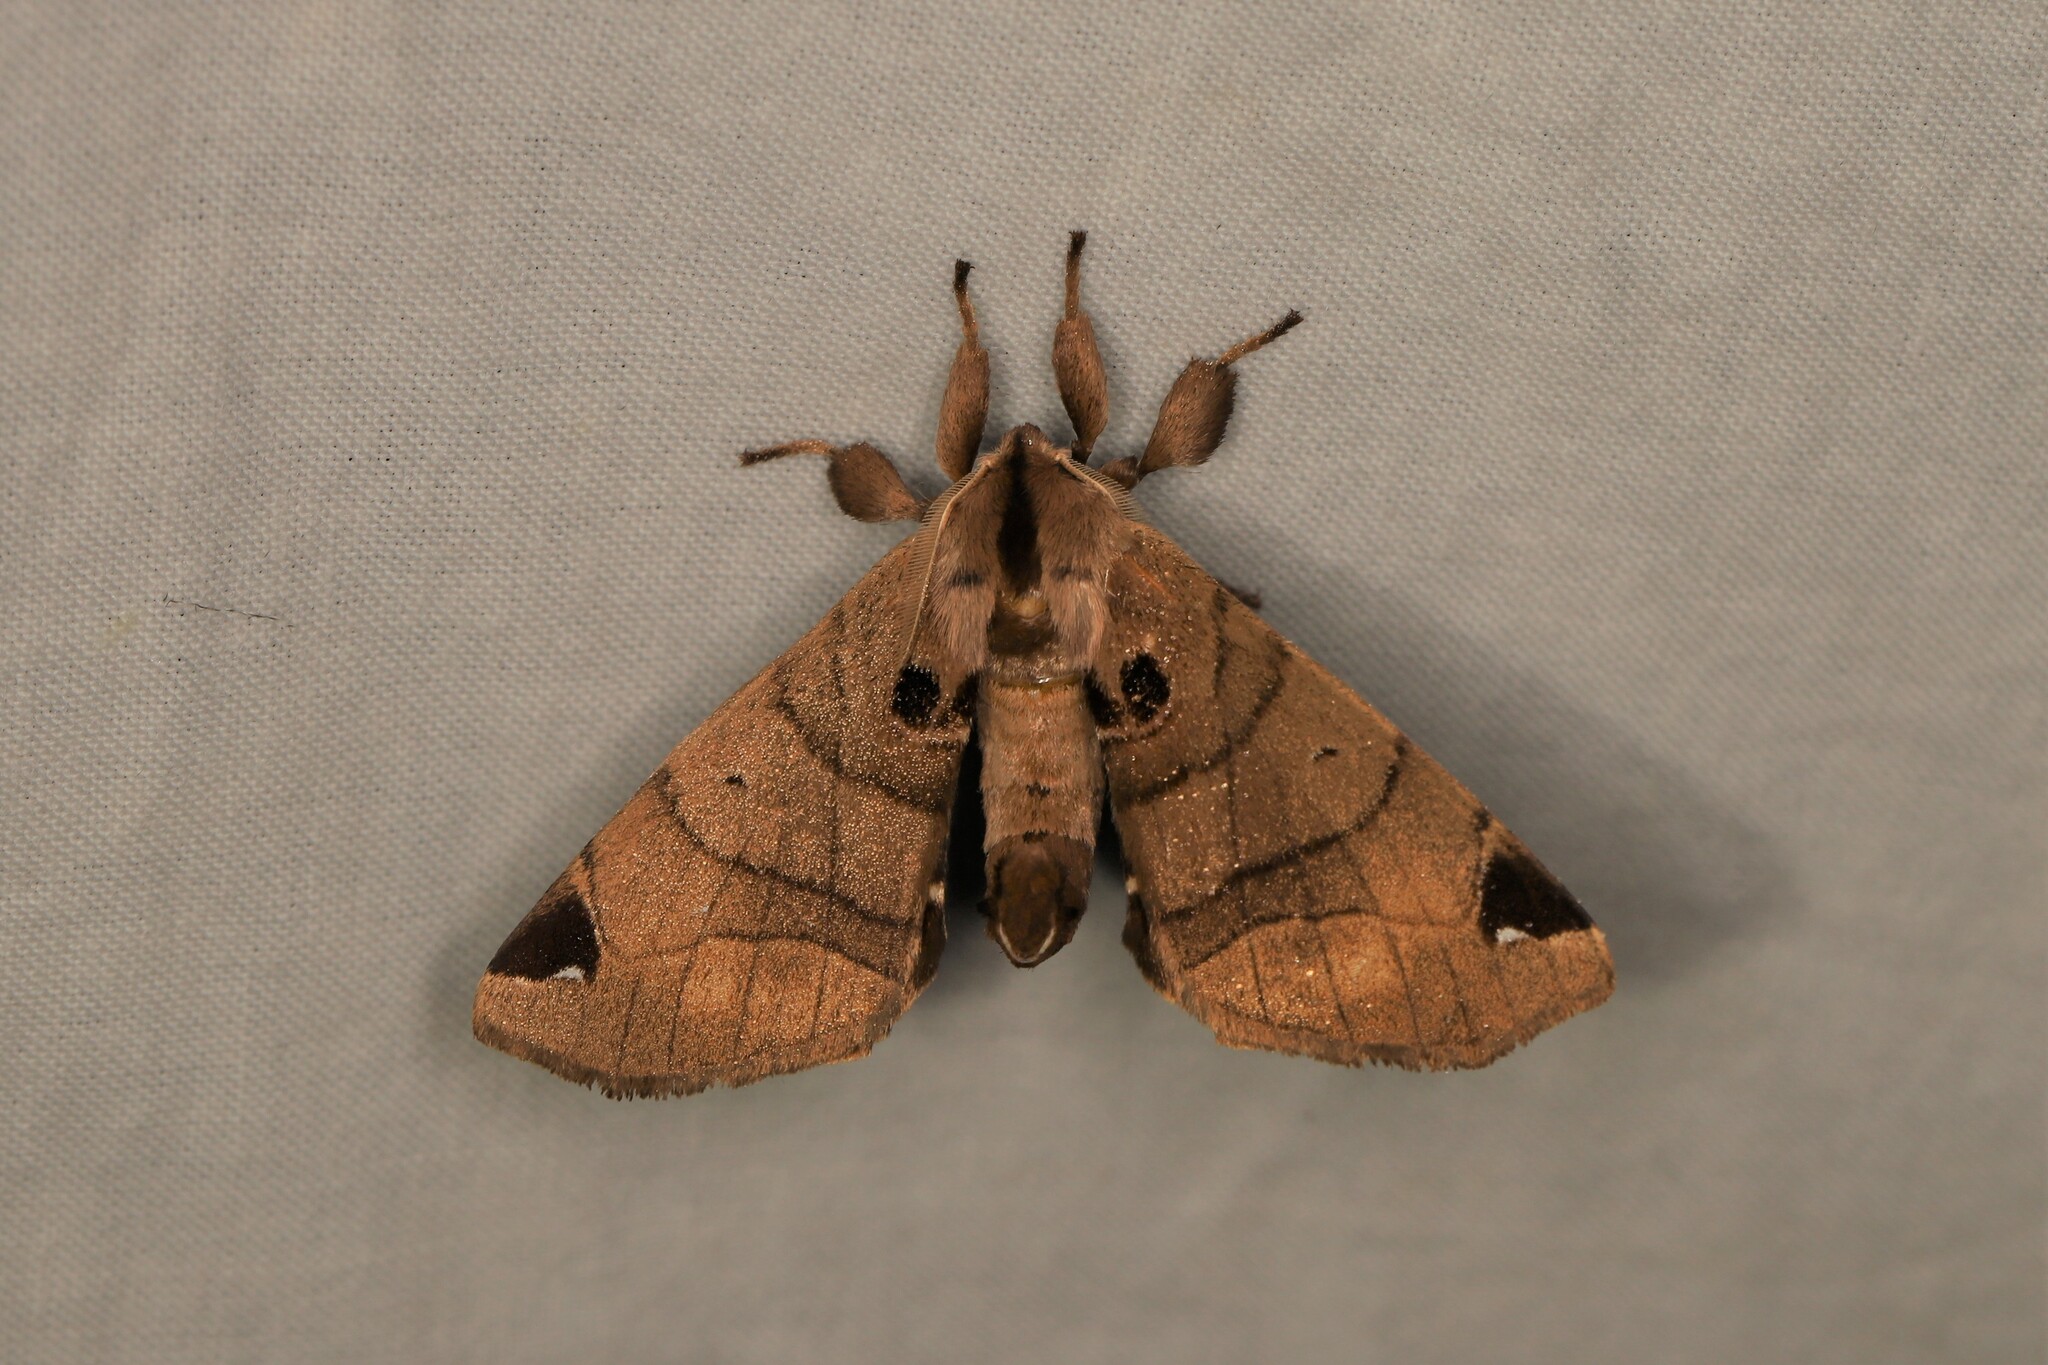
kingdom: Animalia
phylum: Arthropoda
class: Insecta
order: Lepidoptera
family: Apatelodidae
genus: Hygrochroa
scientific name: Hygrochroa
